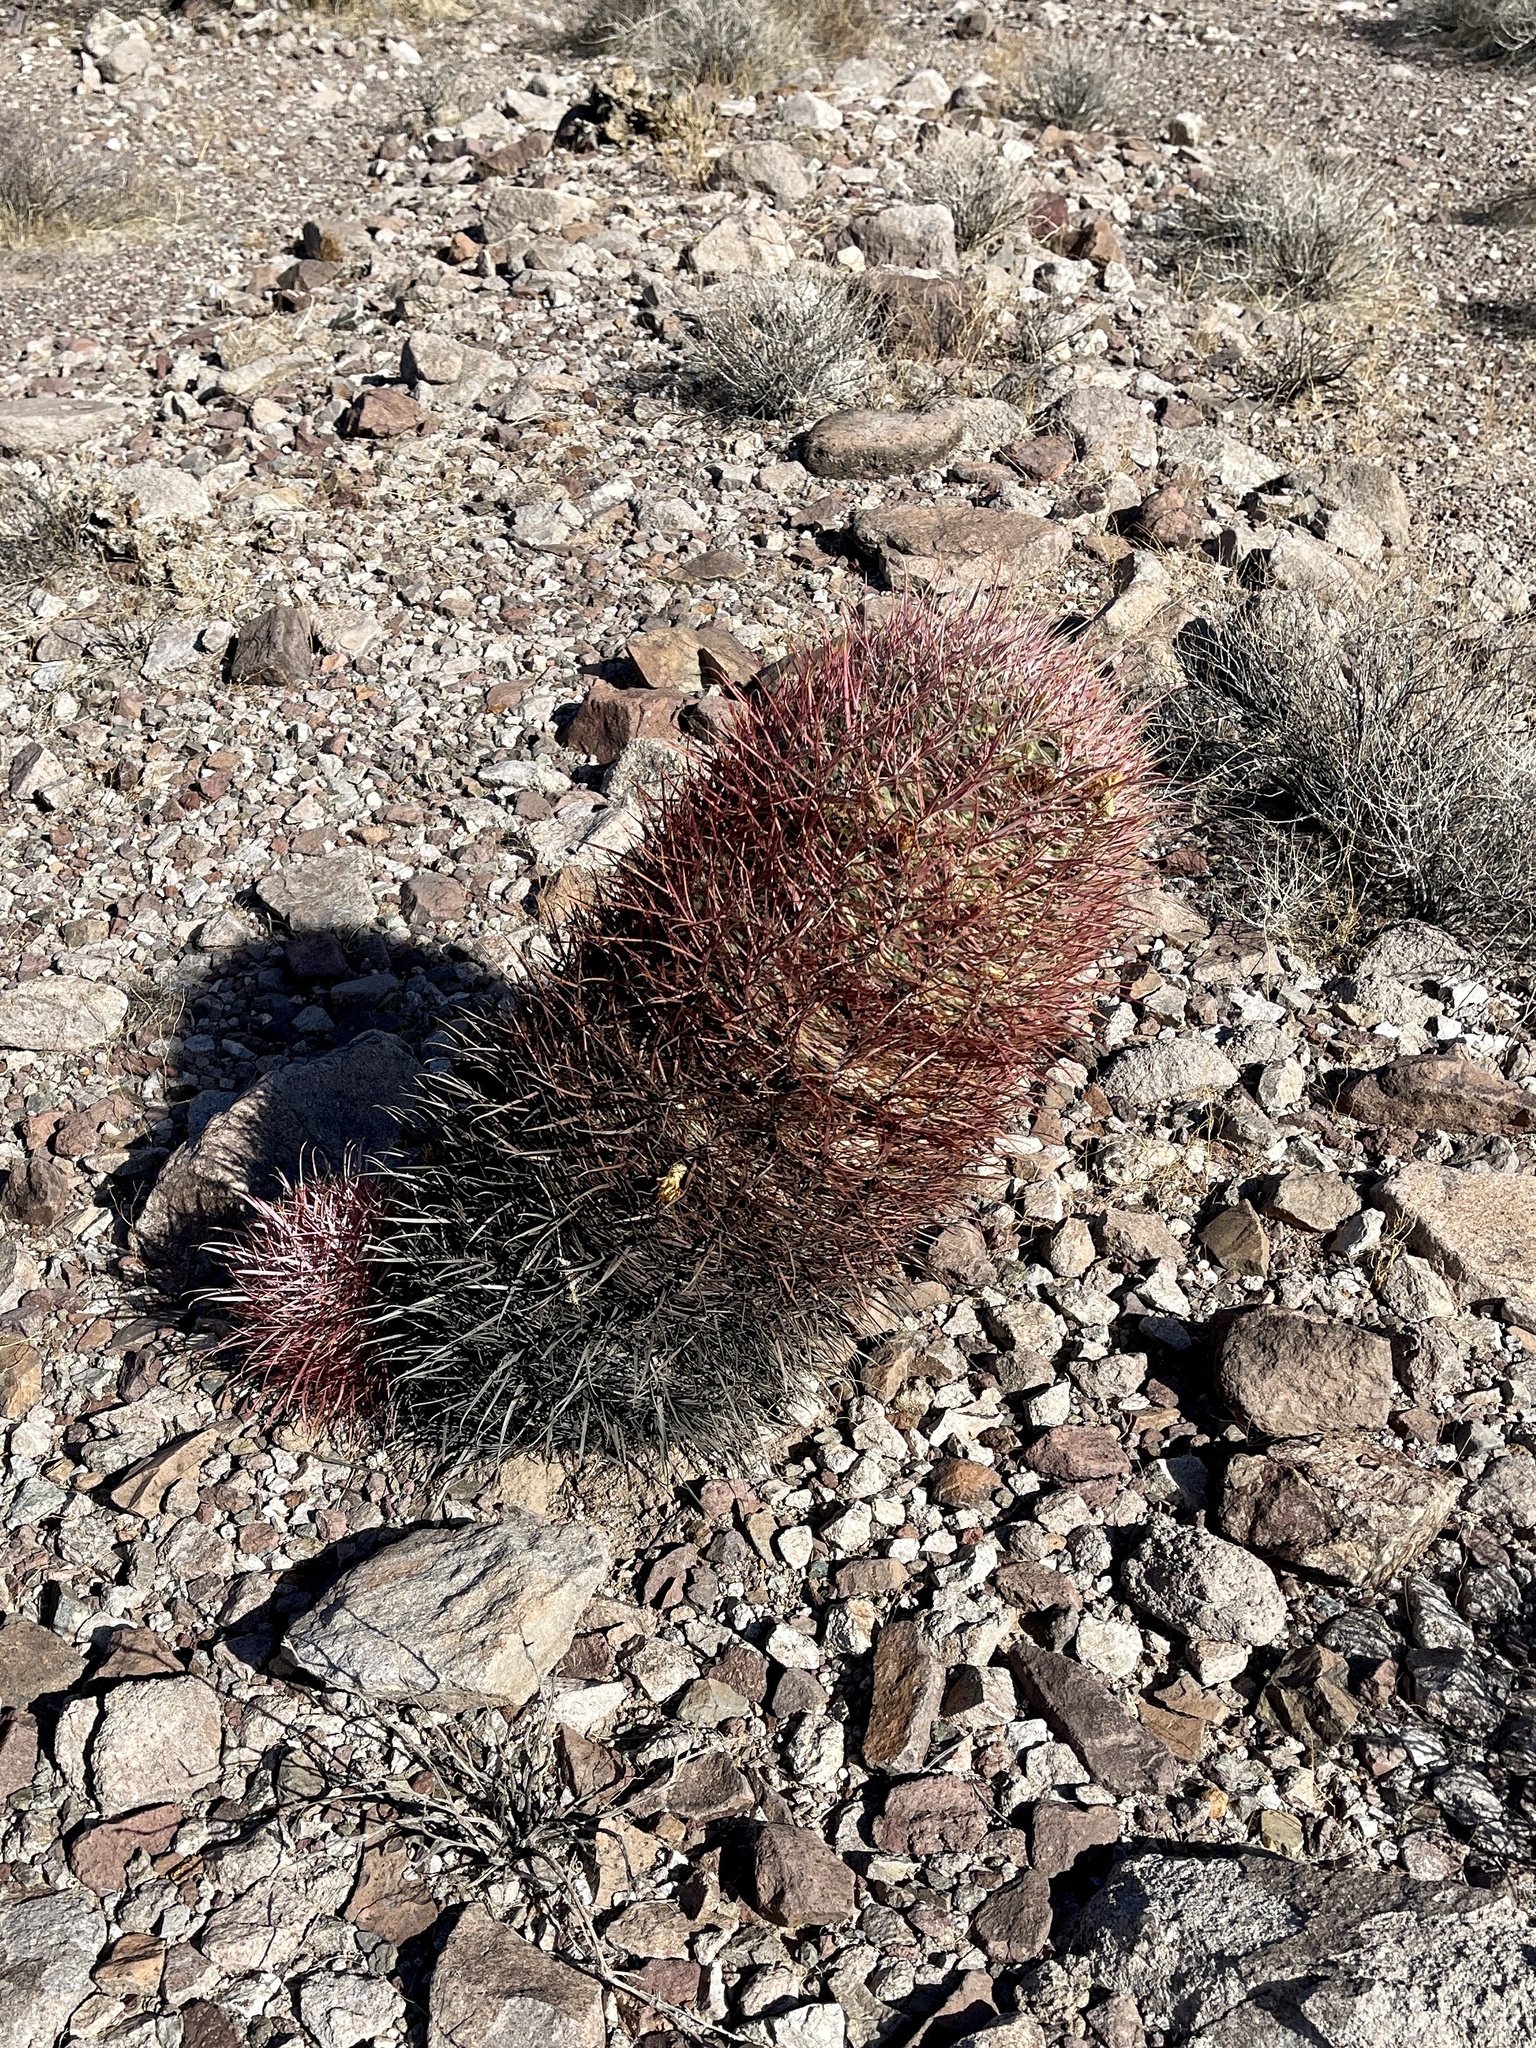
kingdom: Plantae
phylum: Tracheophyta
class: Magnoliopsida
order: Caryophyllales
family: Cactaceae
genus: Ferocactus
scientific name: Ferocactus cylindraceus
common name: California barrel cactus
